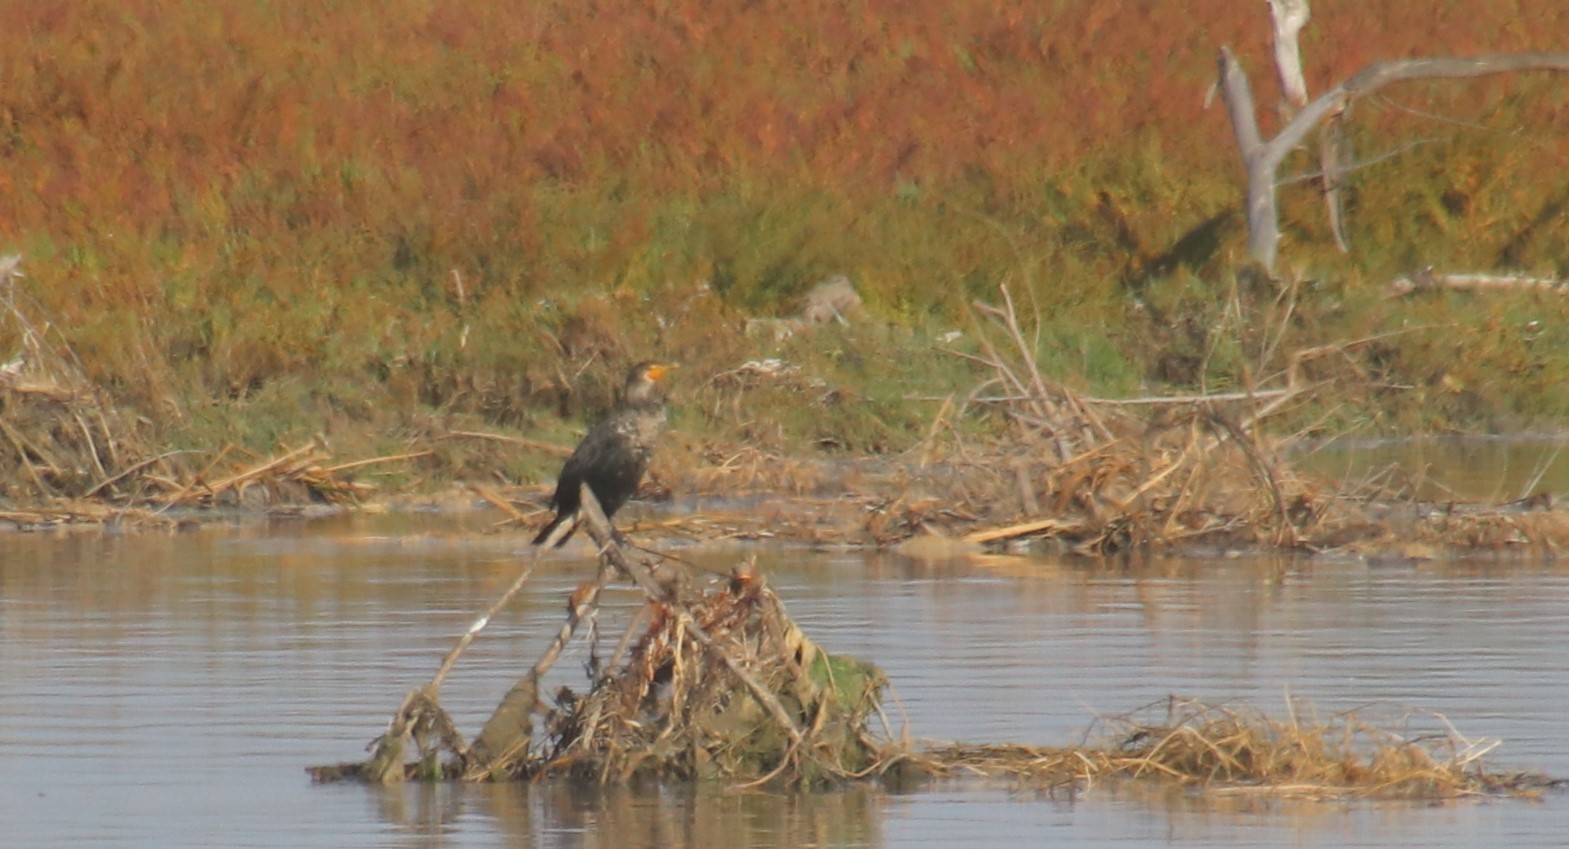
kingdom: Animalia
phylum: Chordata
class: Aves
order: Suliformes
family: Phalacrocoracidae
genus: Phalacrocorax
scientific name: Phalacrocorax auritus
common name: Double-crested cormorant
